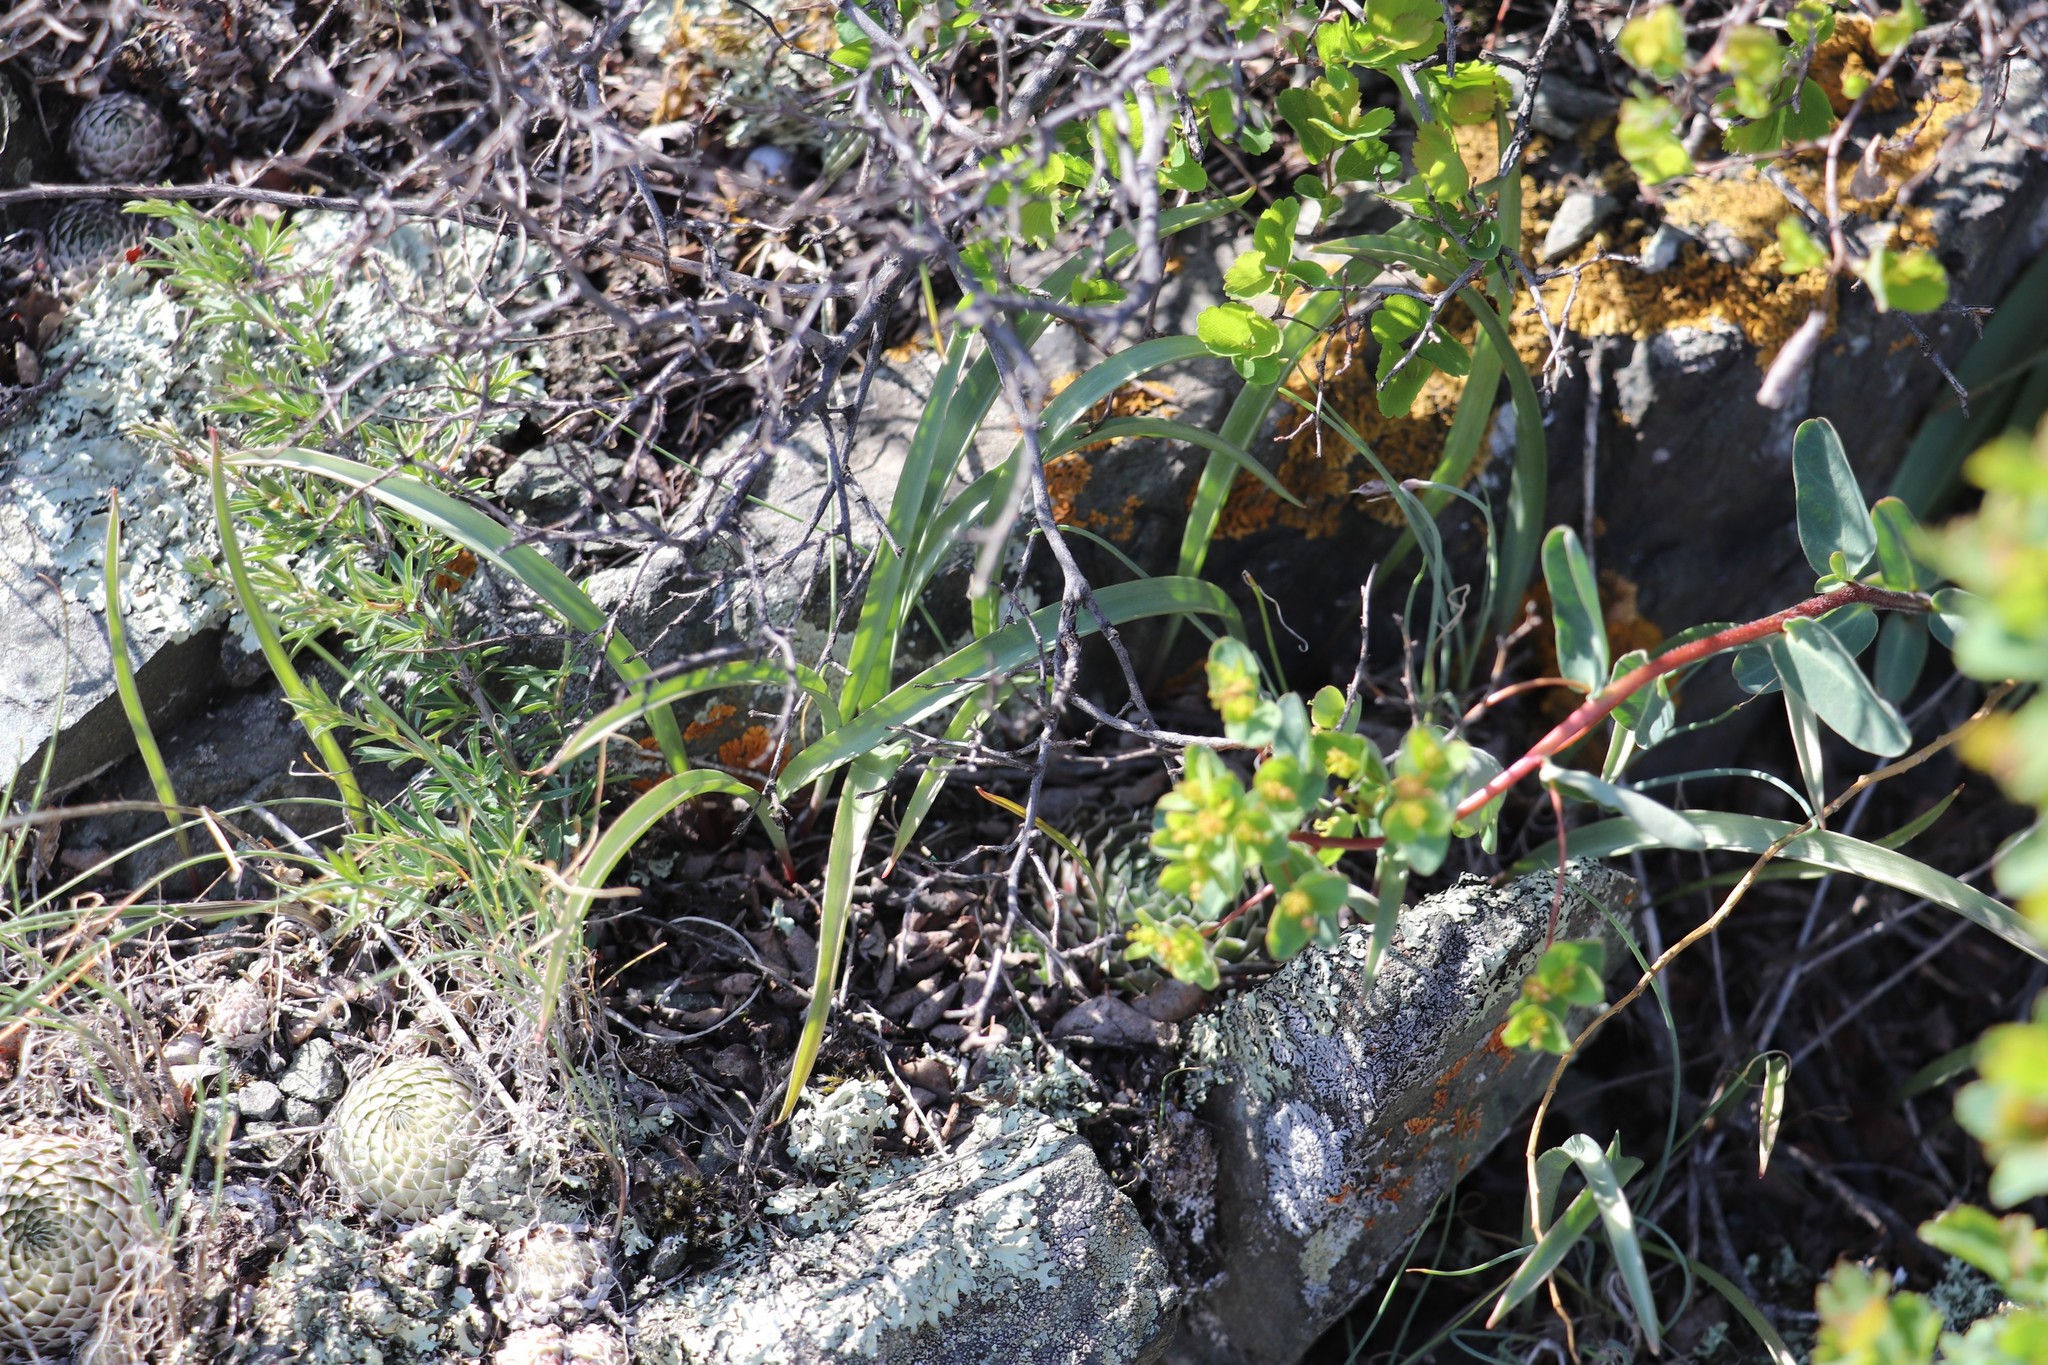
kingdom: Plantae
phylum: Tracheophyta
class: Liliopsida
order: Liliales
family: Liliaceae
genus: Tulipa
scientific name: Tulipa uniflora
